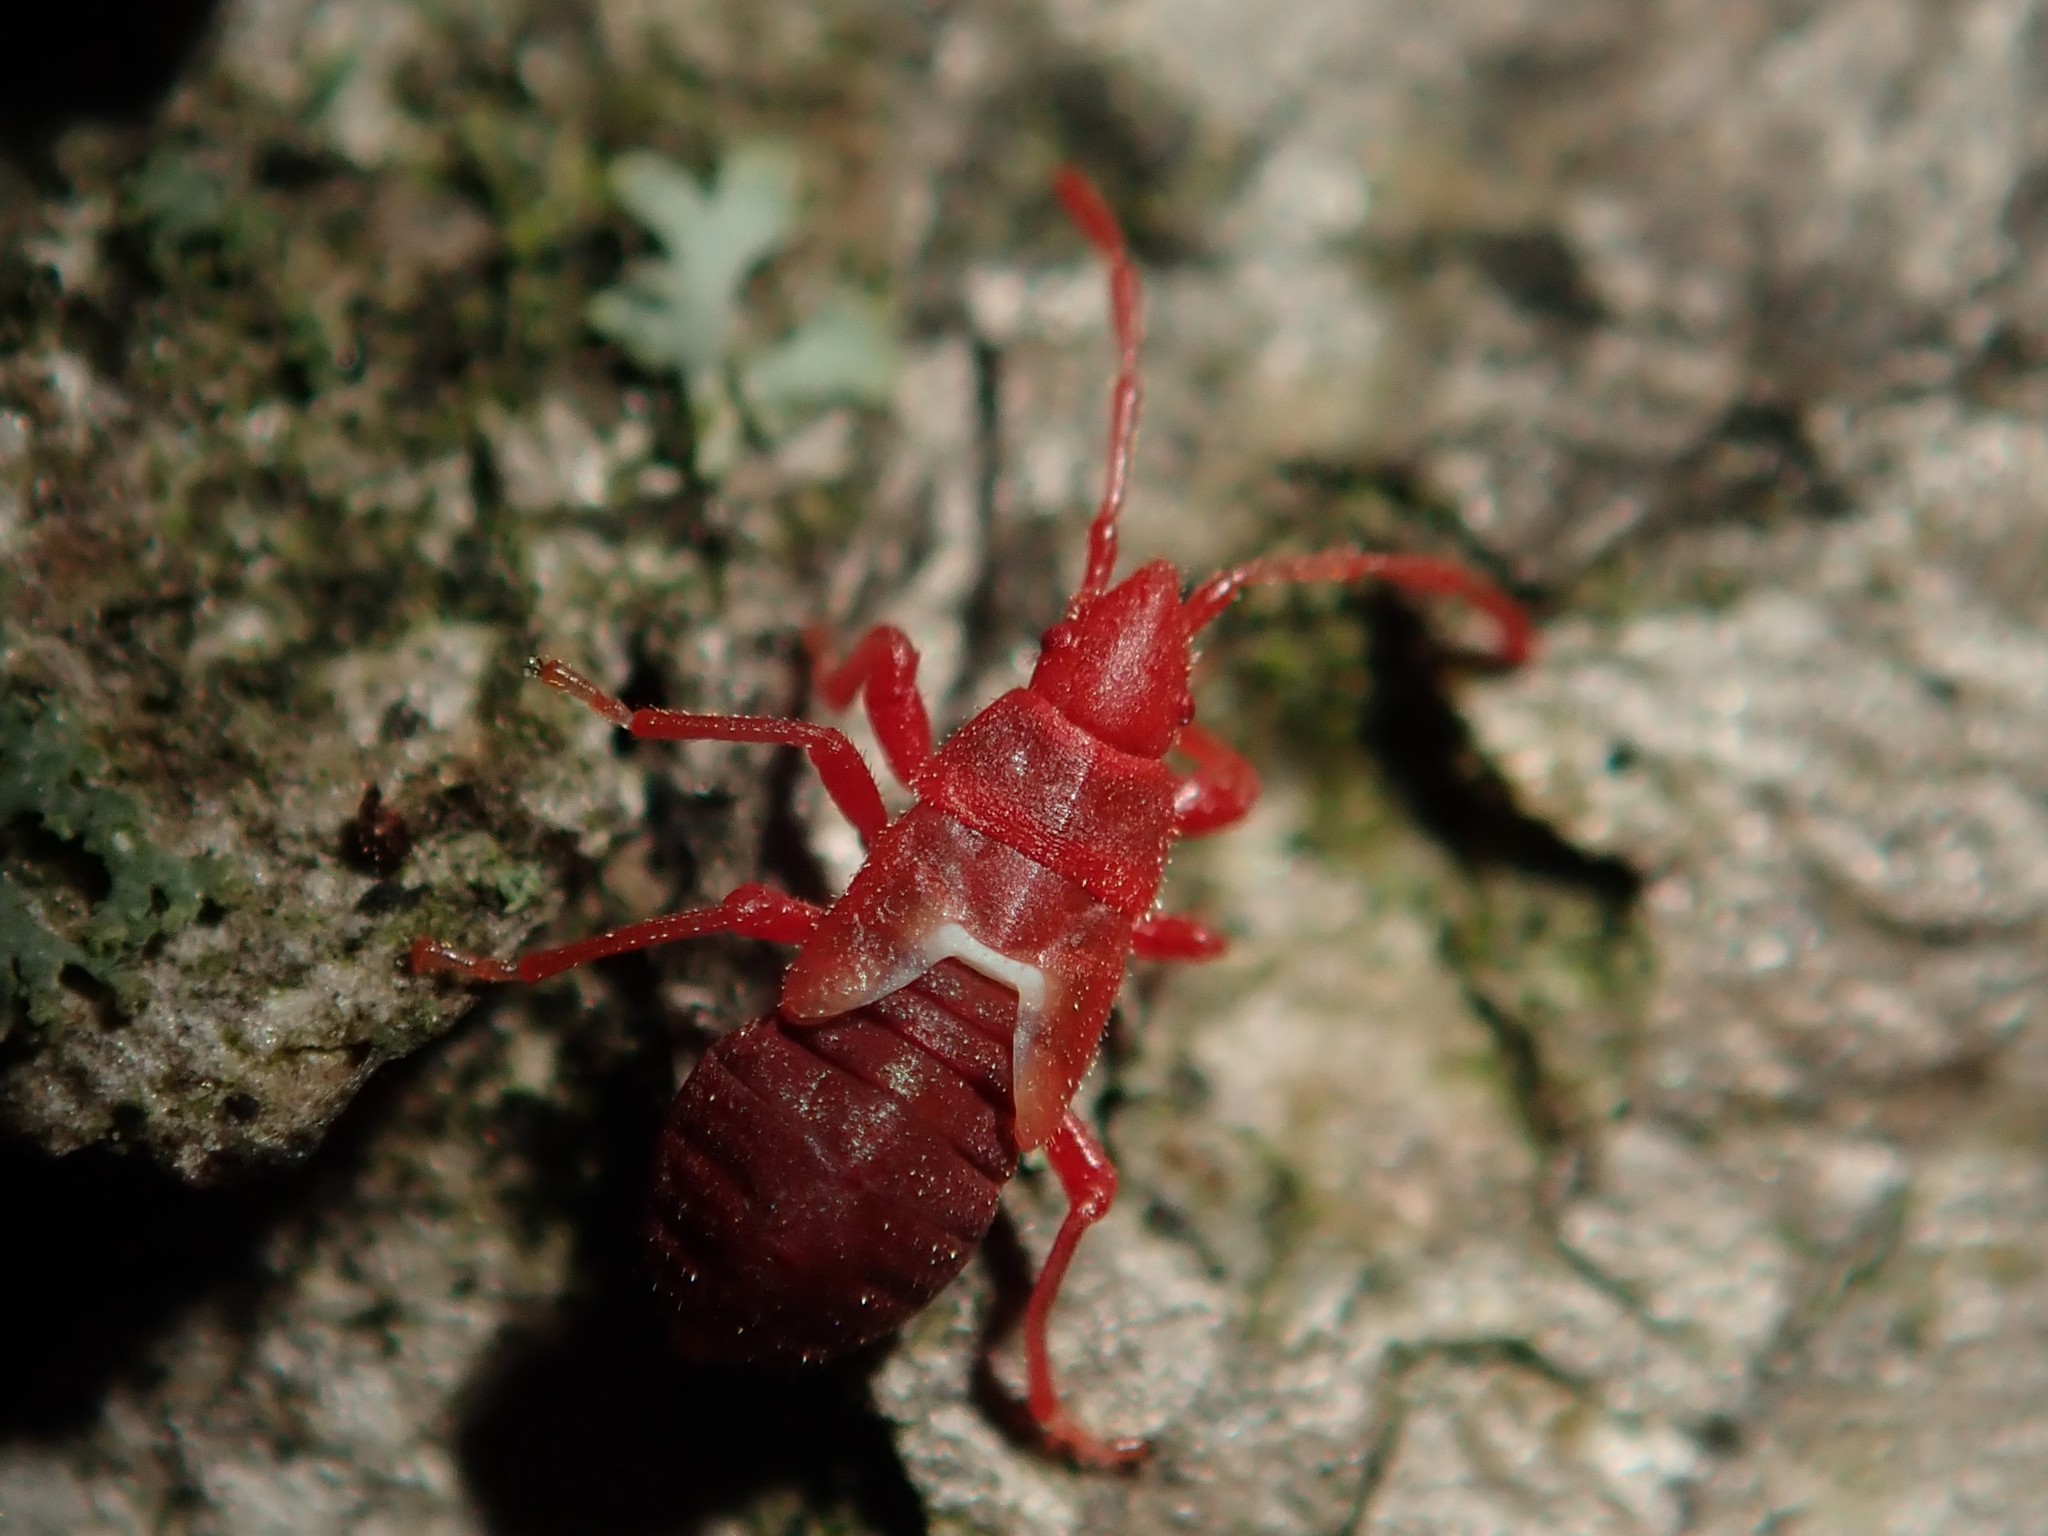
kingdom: Animalia
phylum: Arthropoda
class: Insecta
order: Hemiptera
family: Oxycarenidae
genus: Oxycarenus
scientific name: Oxycarenus lavaterae
